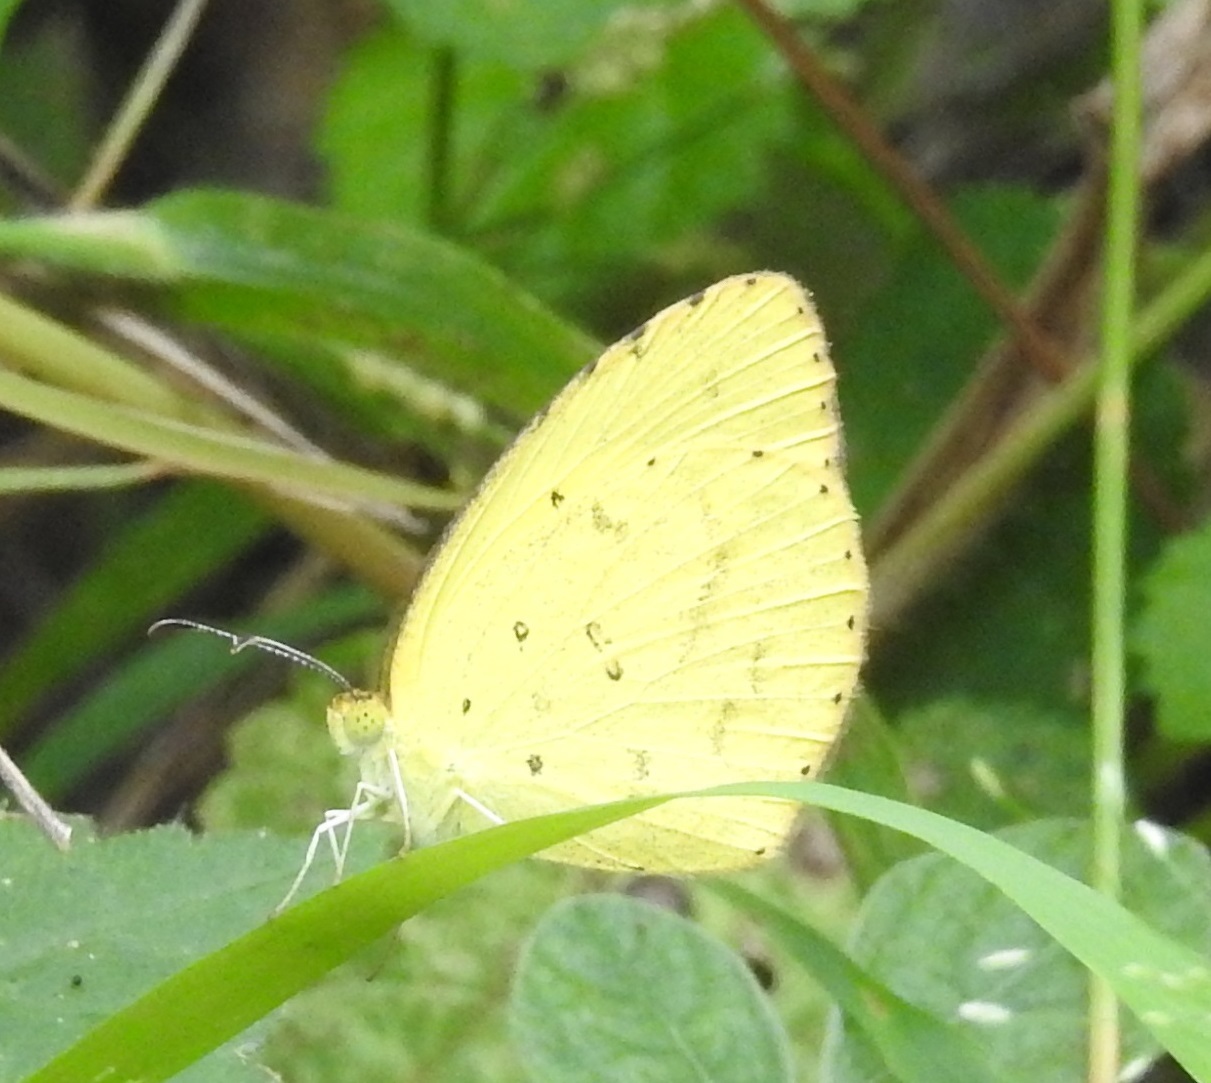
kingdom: Animalia
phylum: Arthropoda
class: Insecta
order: Lepidoptera
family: Pieridae
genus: Eurema
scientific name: Eurema hecabe
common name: Pale grass yellow
